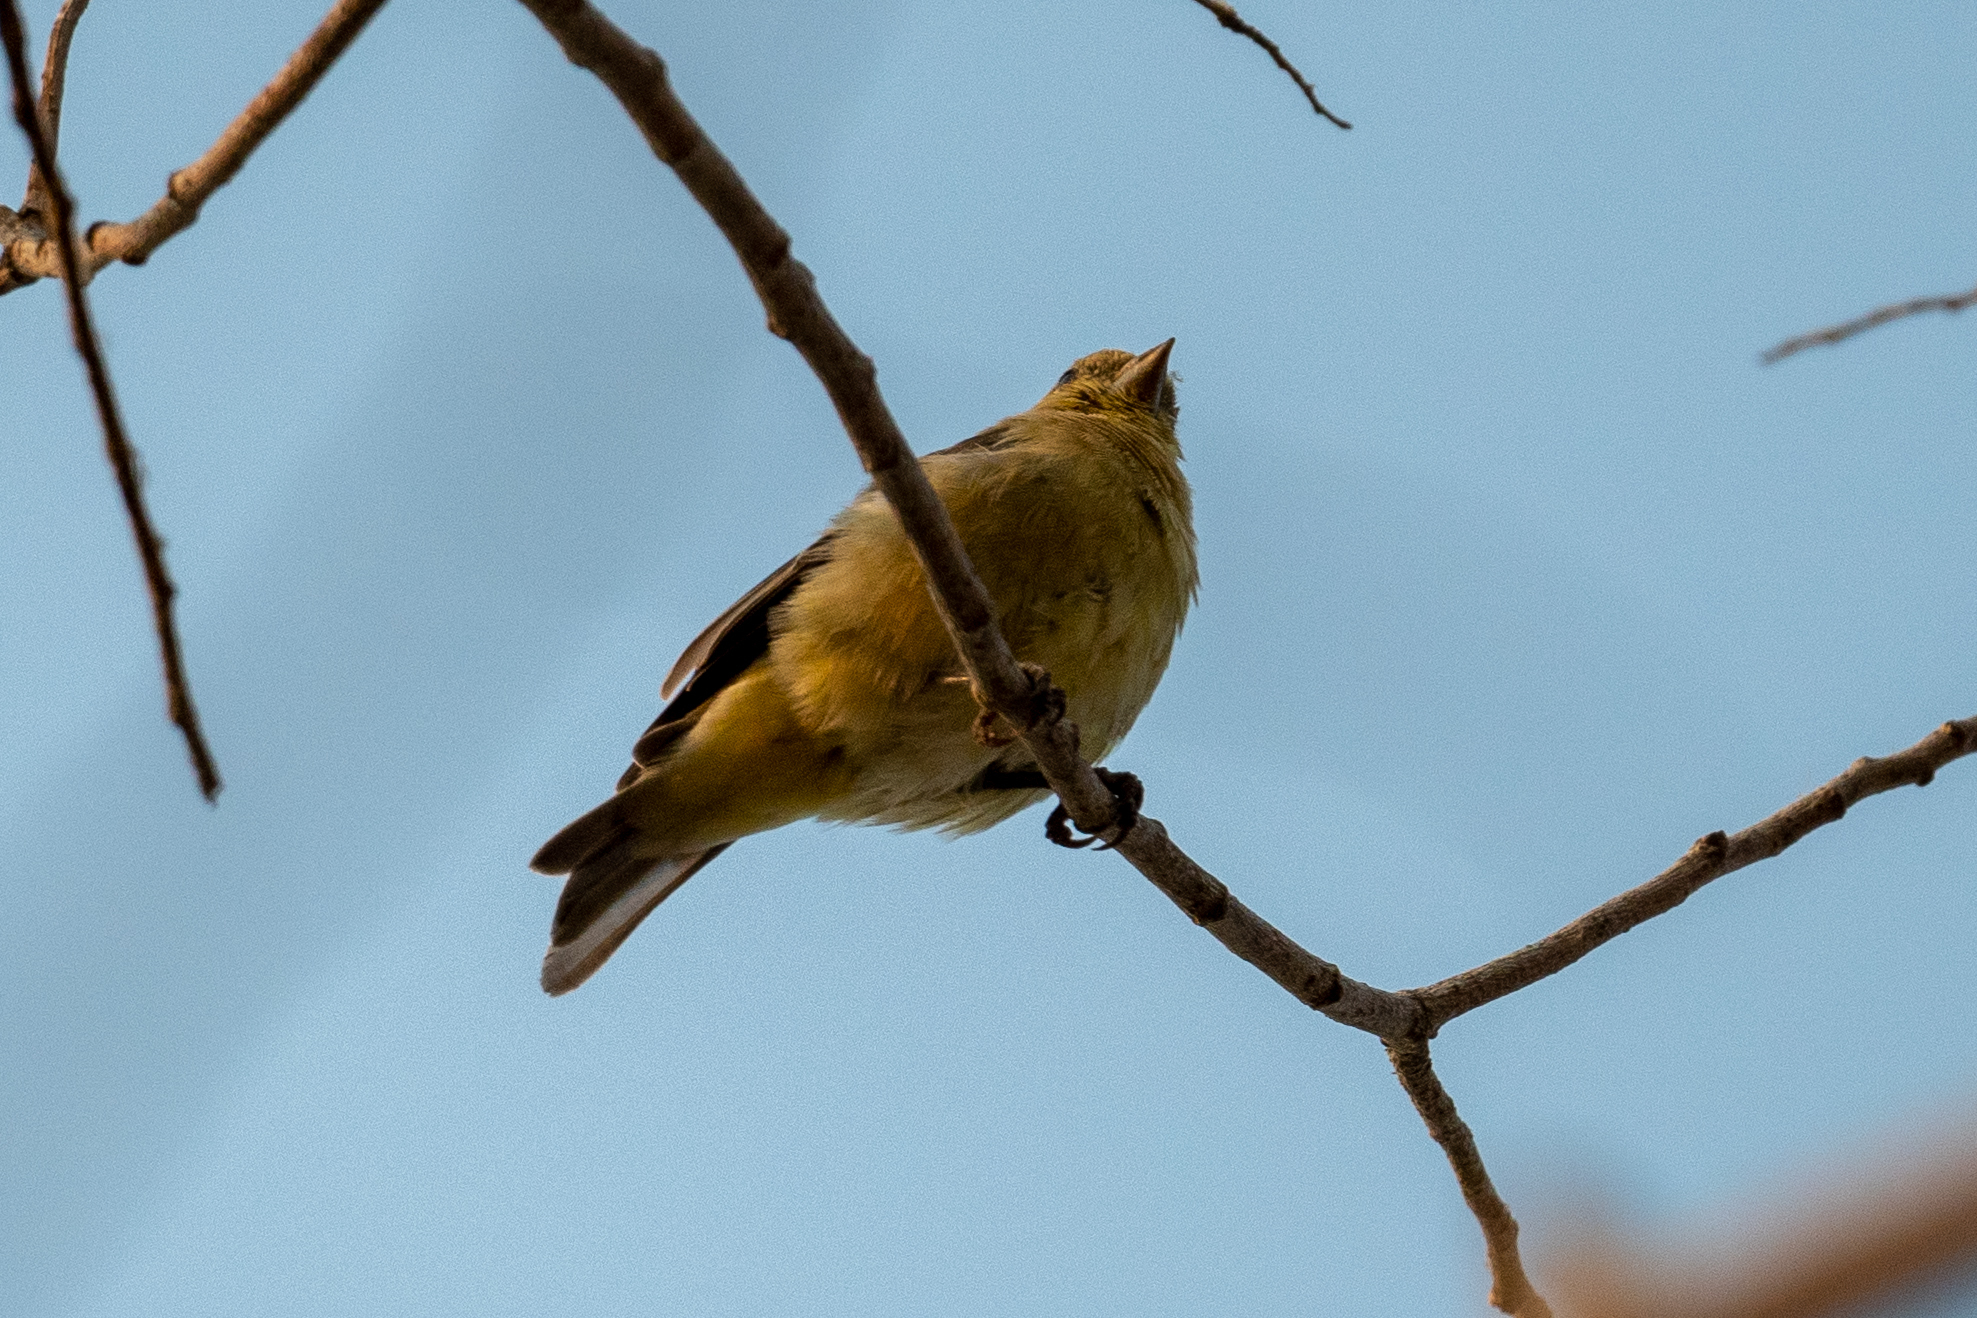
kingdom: Animalia
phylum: Chordata
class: Aves
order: Passeriformes
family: Fringillidae
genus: Spinus
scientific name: Spinus psaltria
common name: Lesser goldfinch
